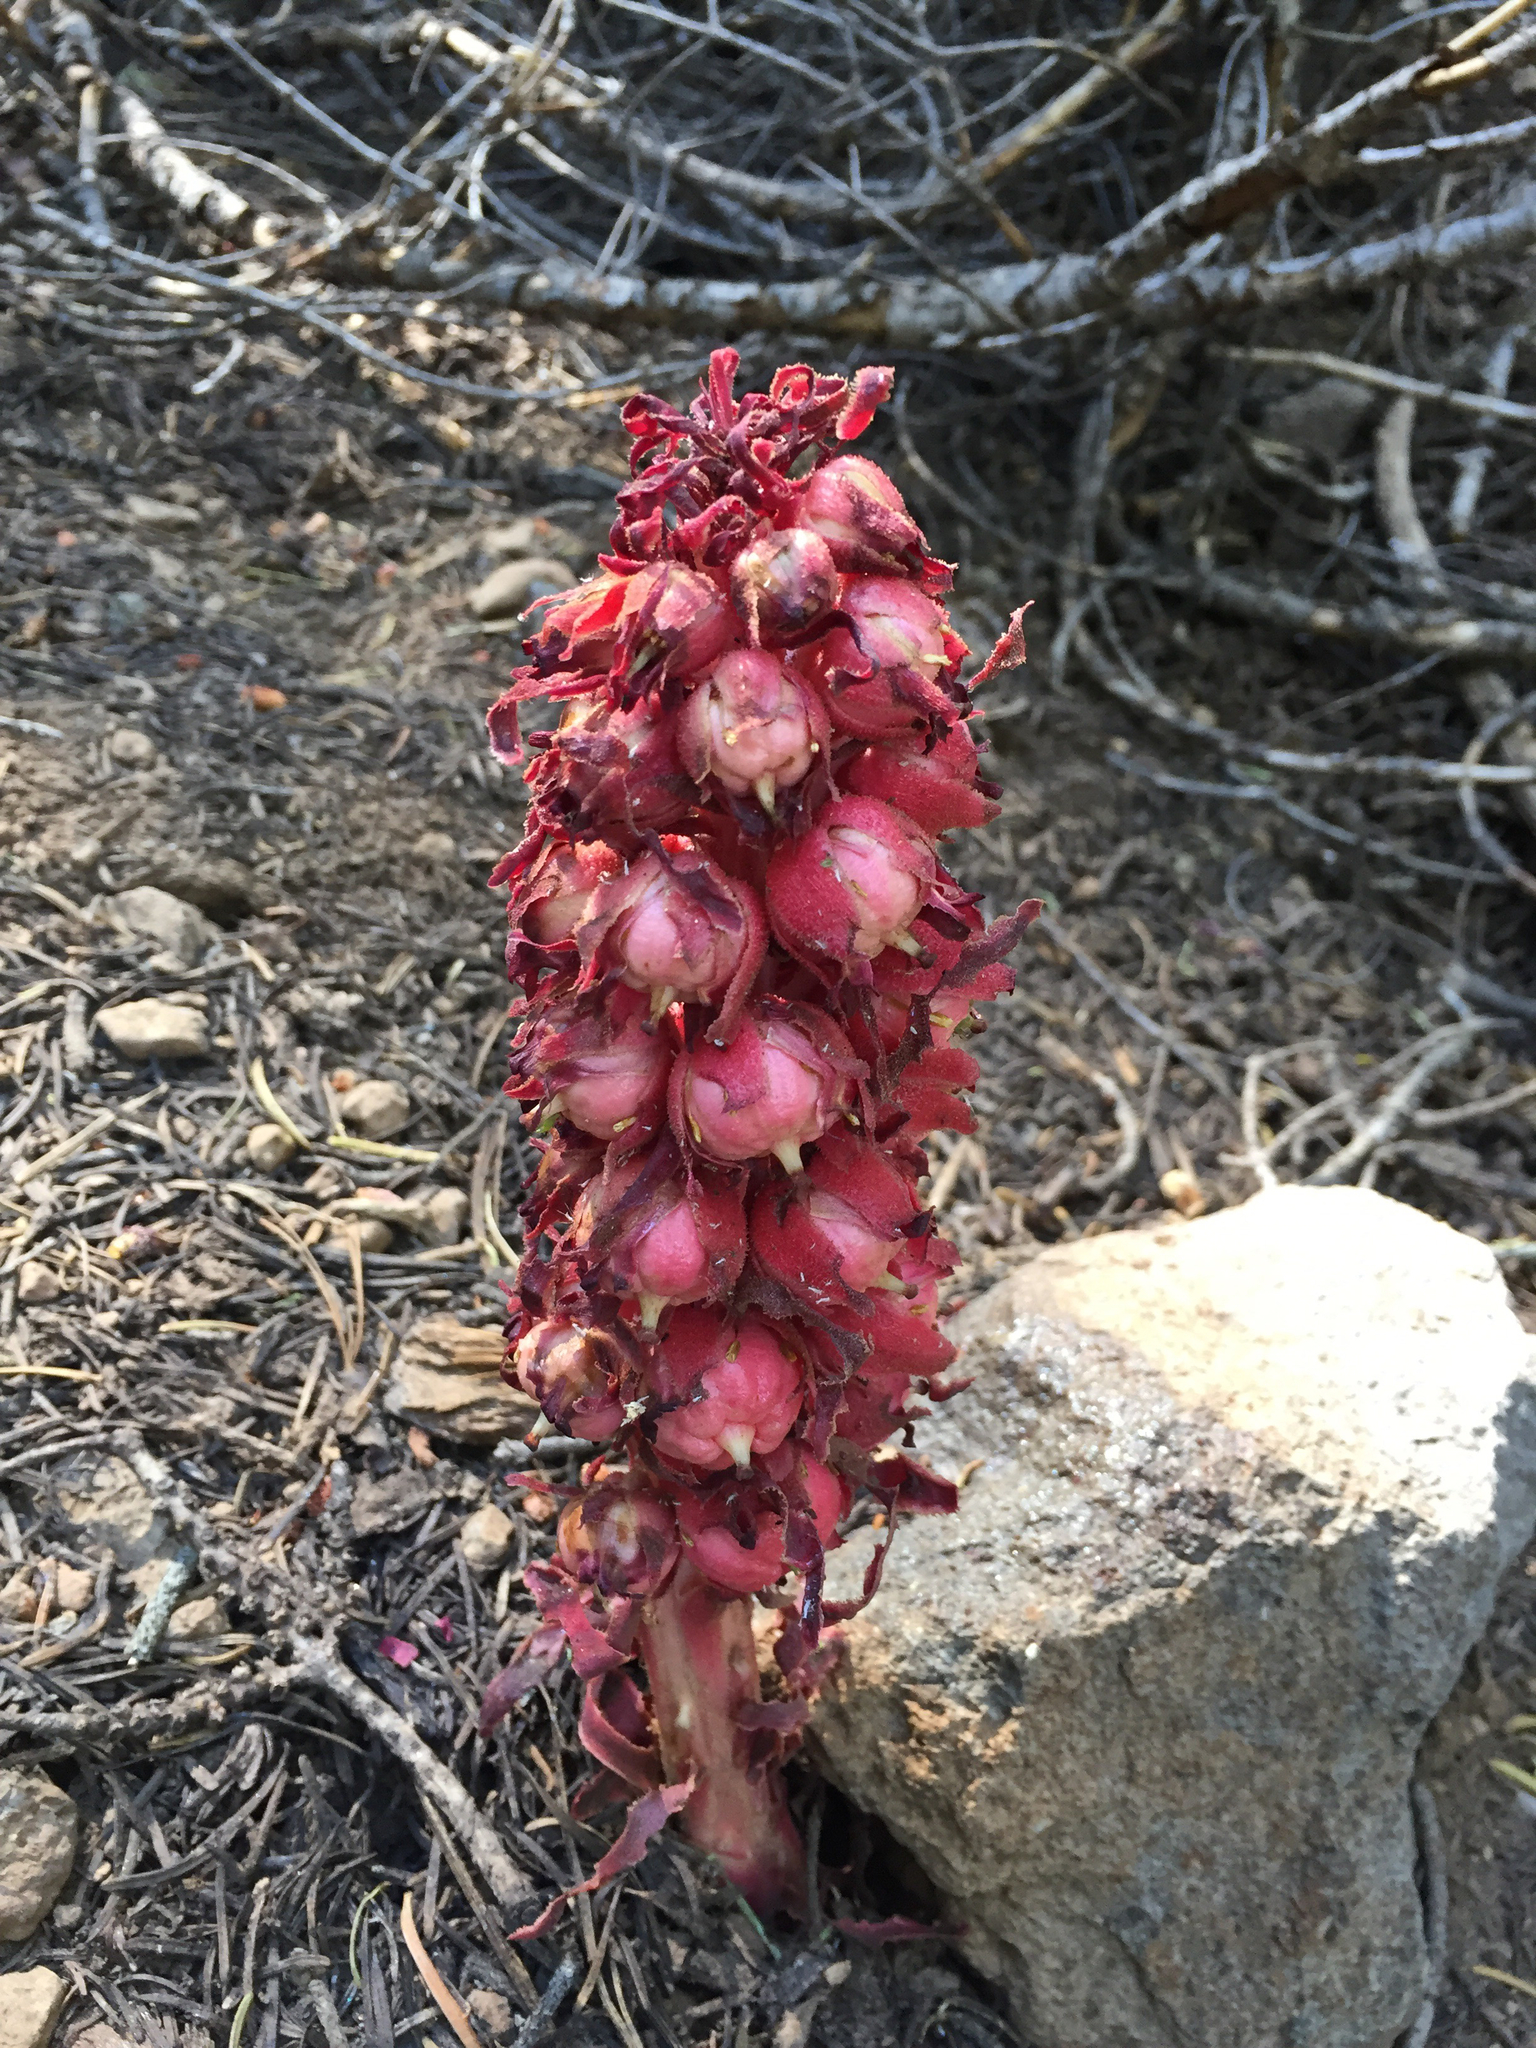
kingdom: Plantae
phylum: Tracheophyta
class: Magnoliopsida
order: Ericales
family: Ericaceae
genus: Sarcodes
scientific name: Sarcodes sanguinea
